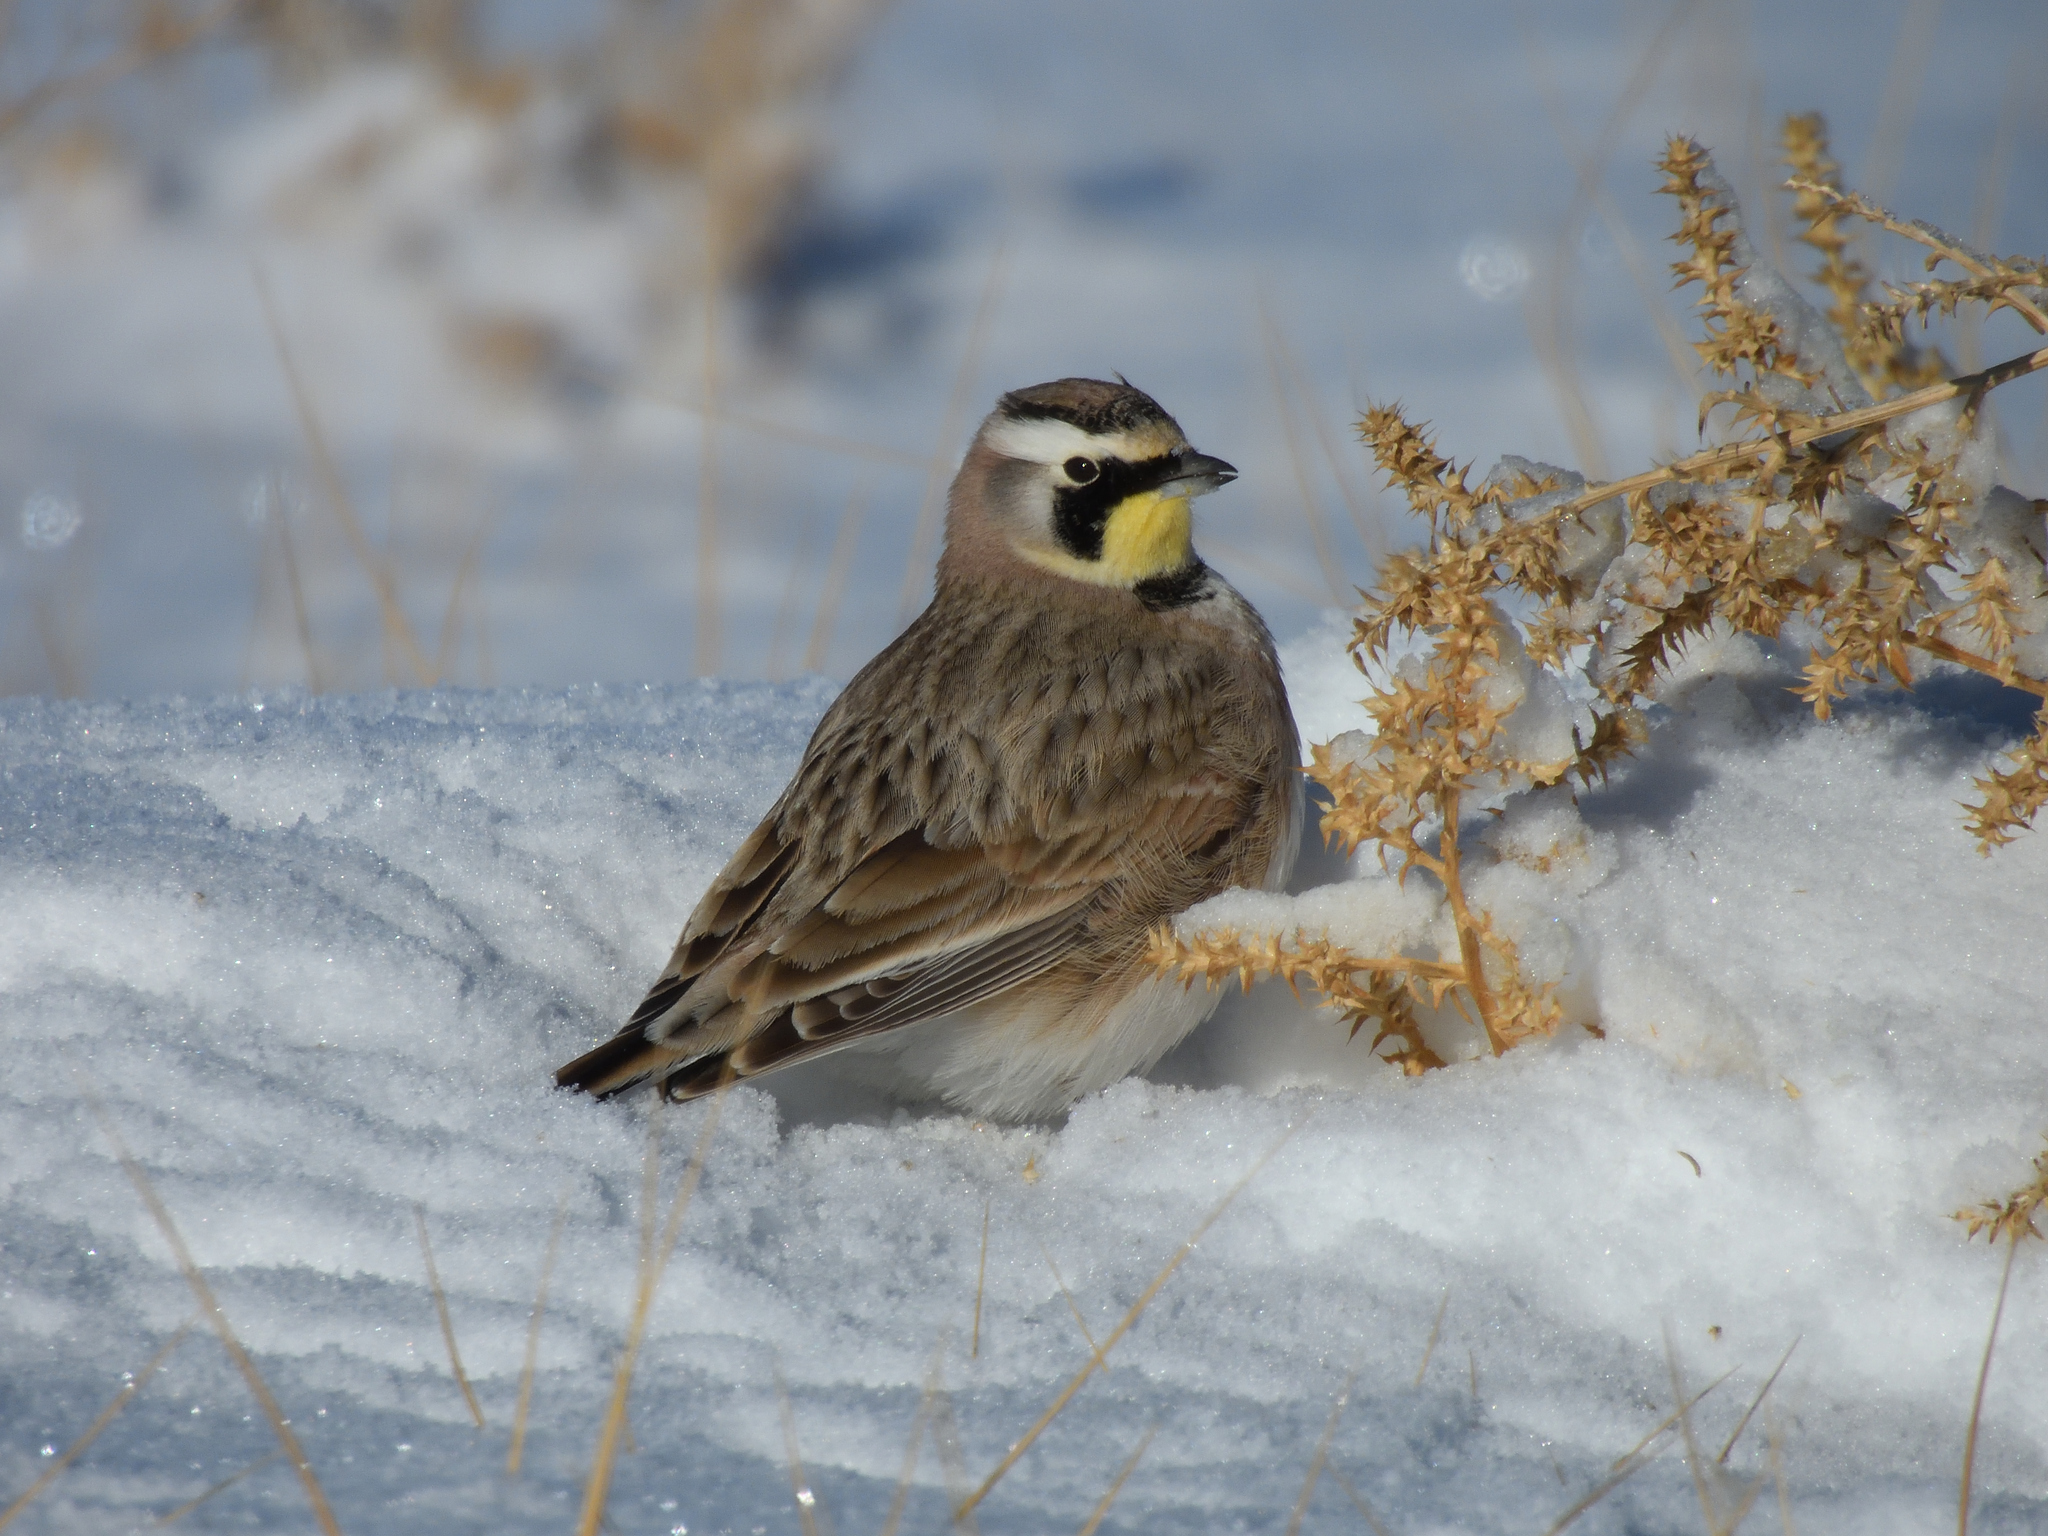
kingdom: Animalia
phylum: Chordata
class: Aves
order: Passeriformes
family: Alaudidae
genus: Eremophila
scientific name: Eremophila alpestris
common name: Horned lark
